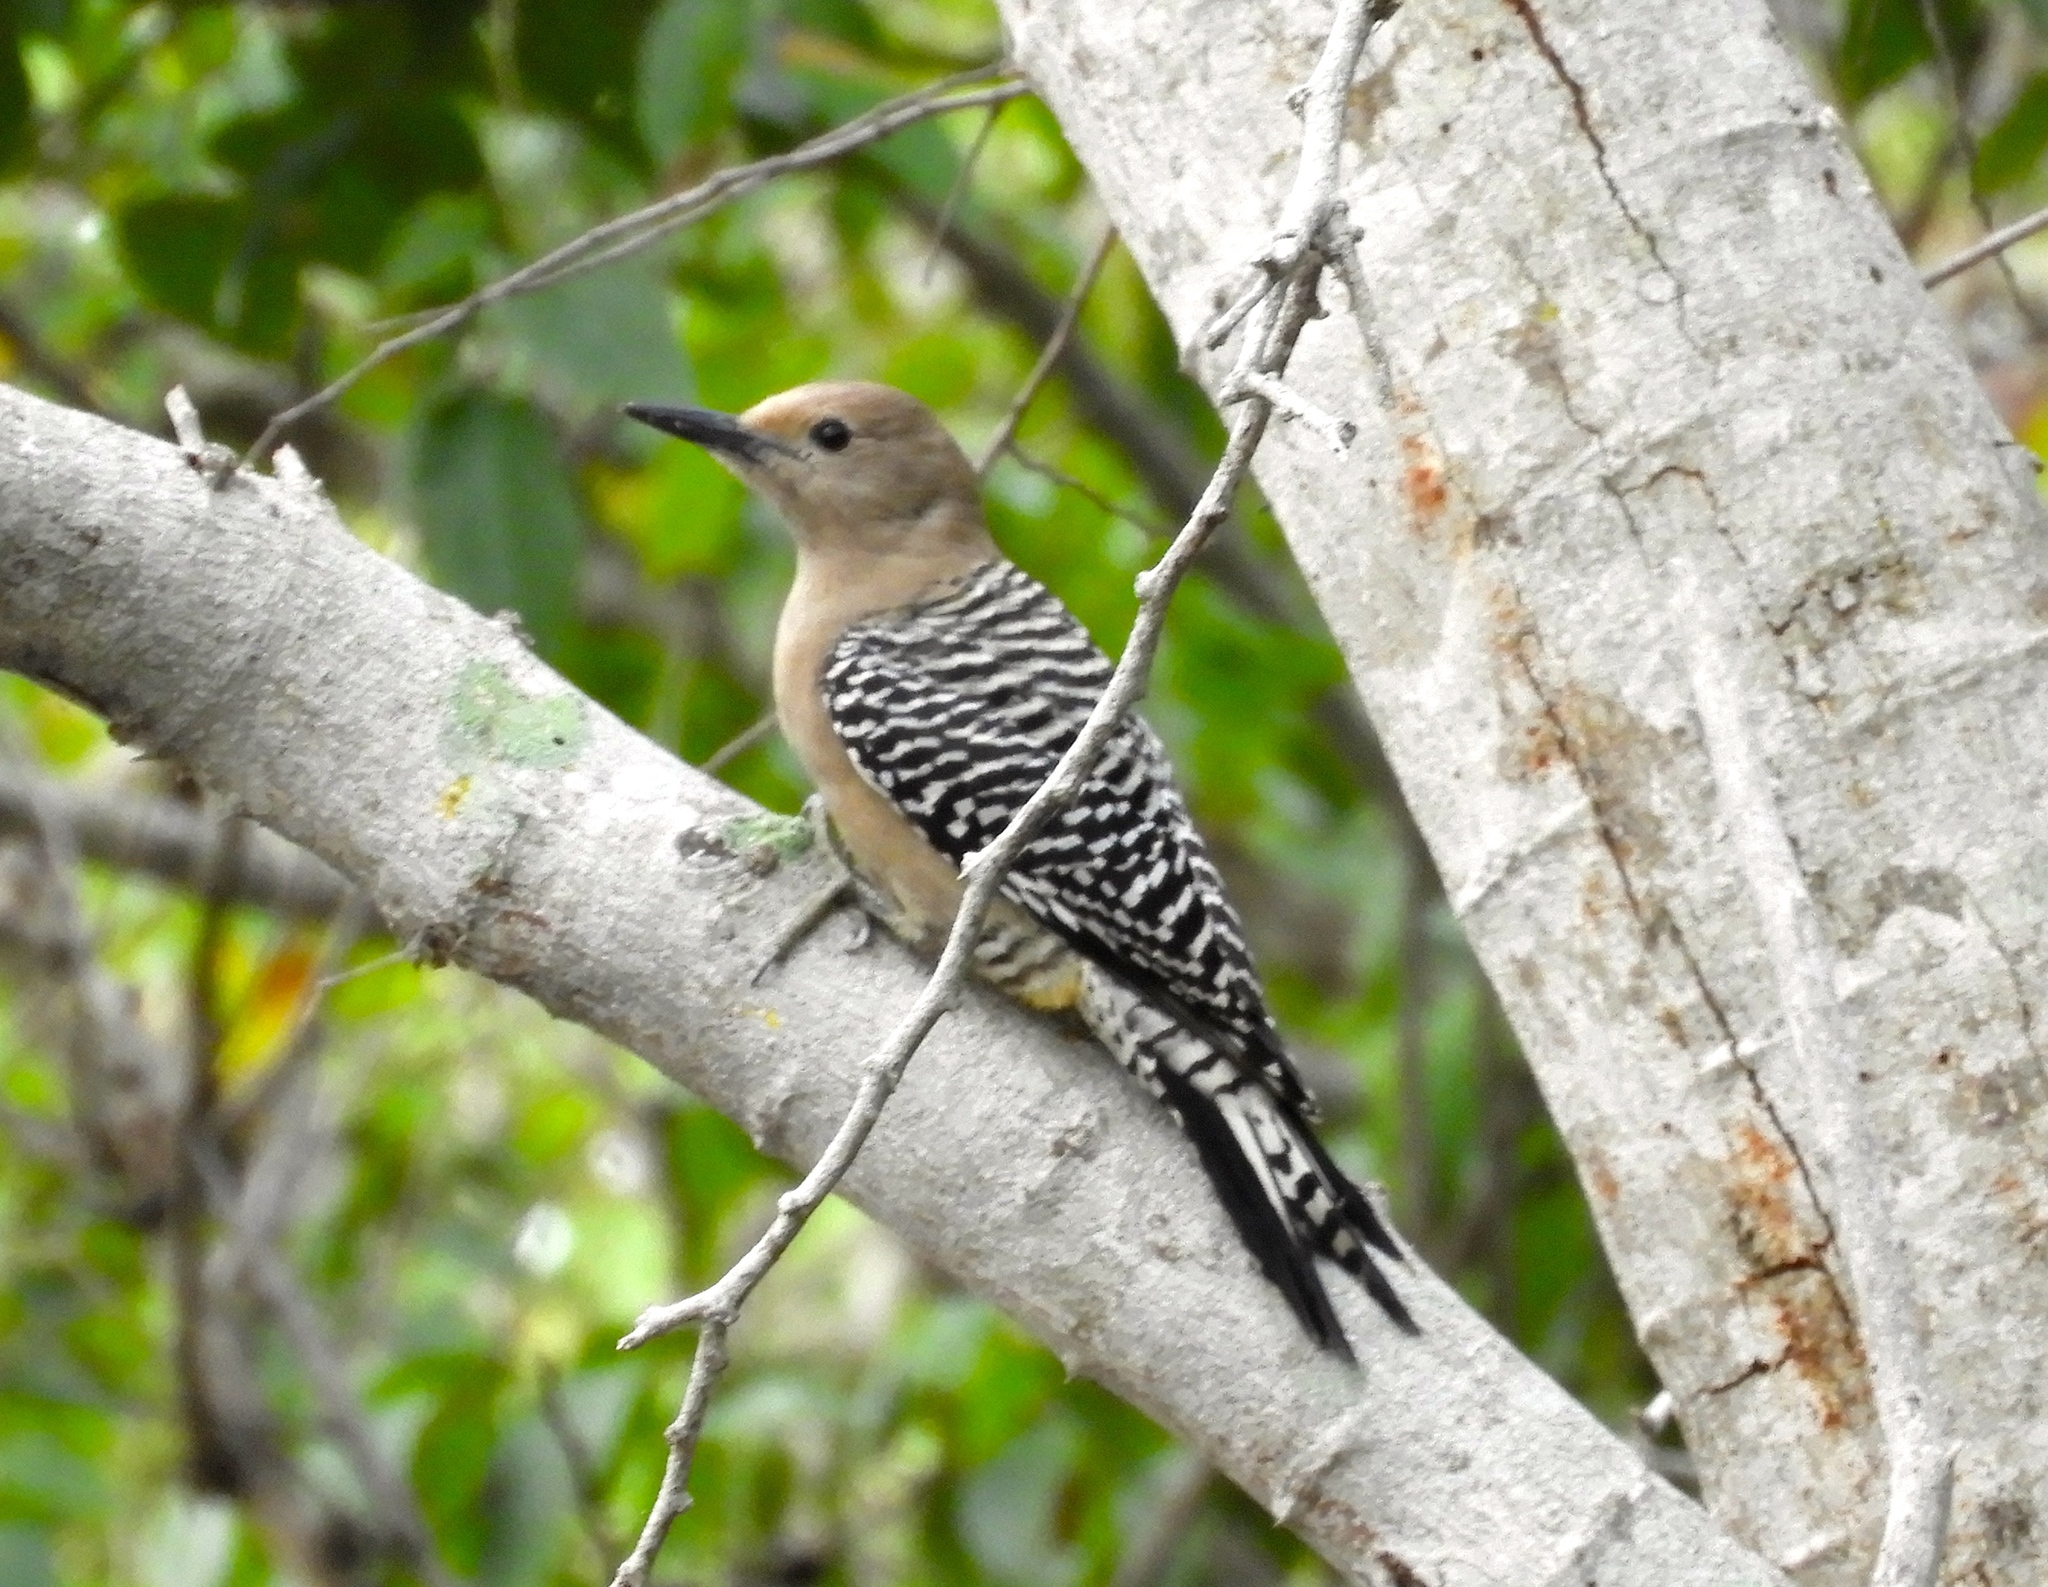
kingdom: Animalia
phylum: Chordata
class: Aves
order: Piciformes
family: Picidae
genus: Melanerpes
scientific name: Melanerpes uropygialis
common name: Gila woodpecker
